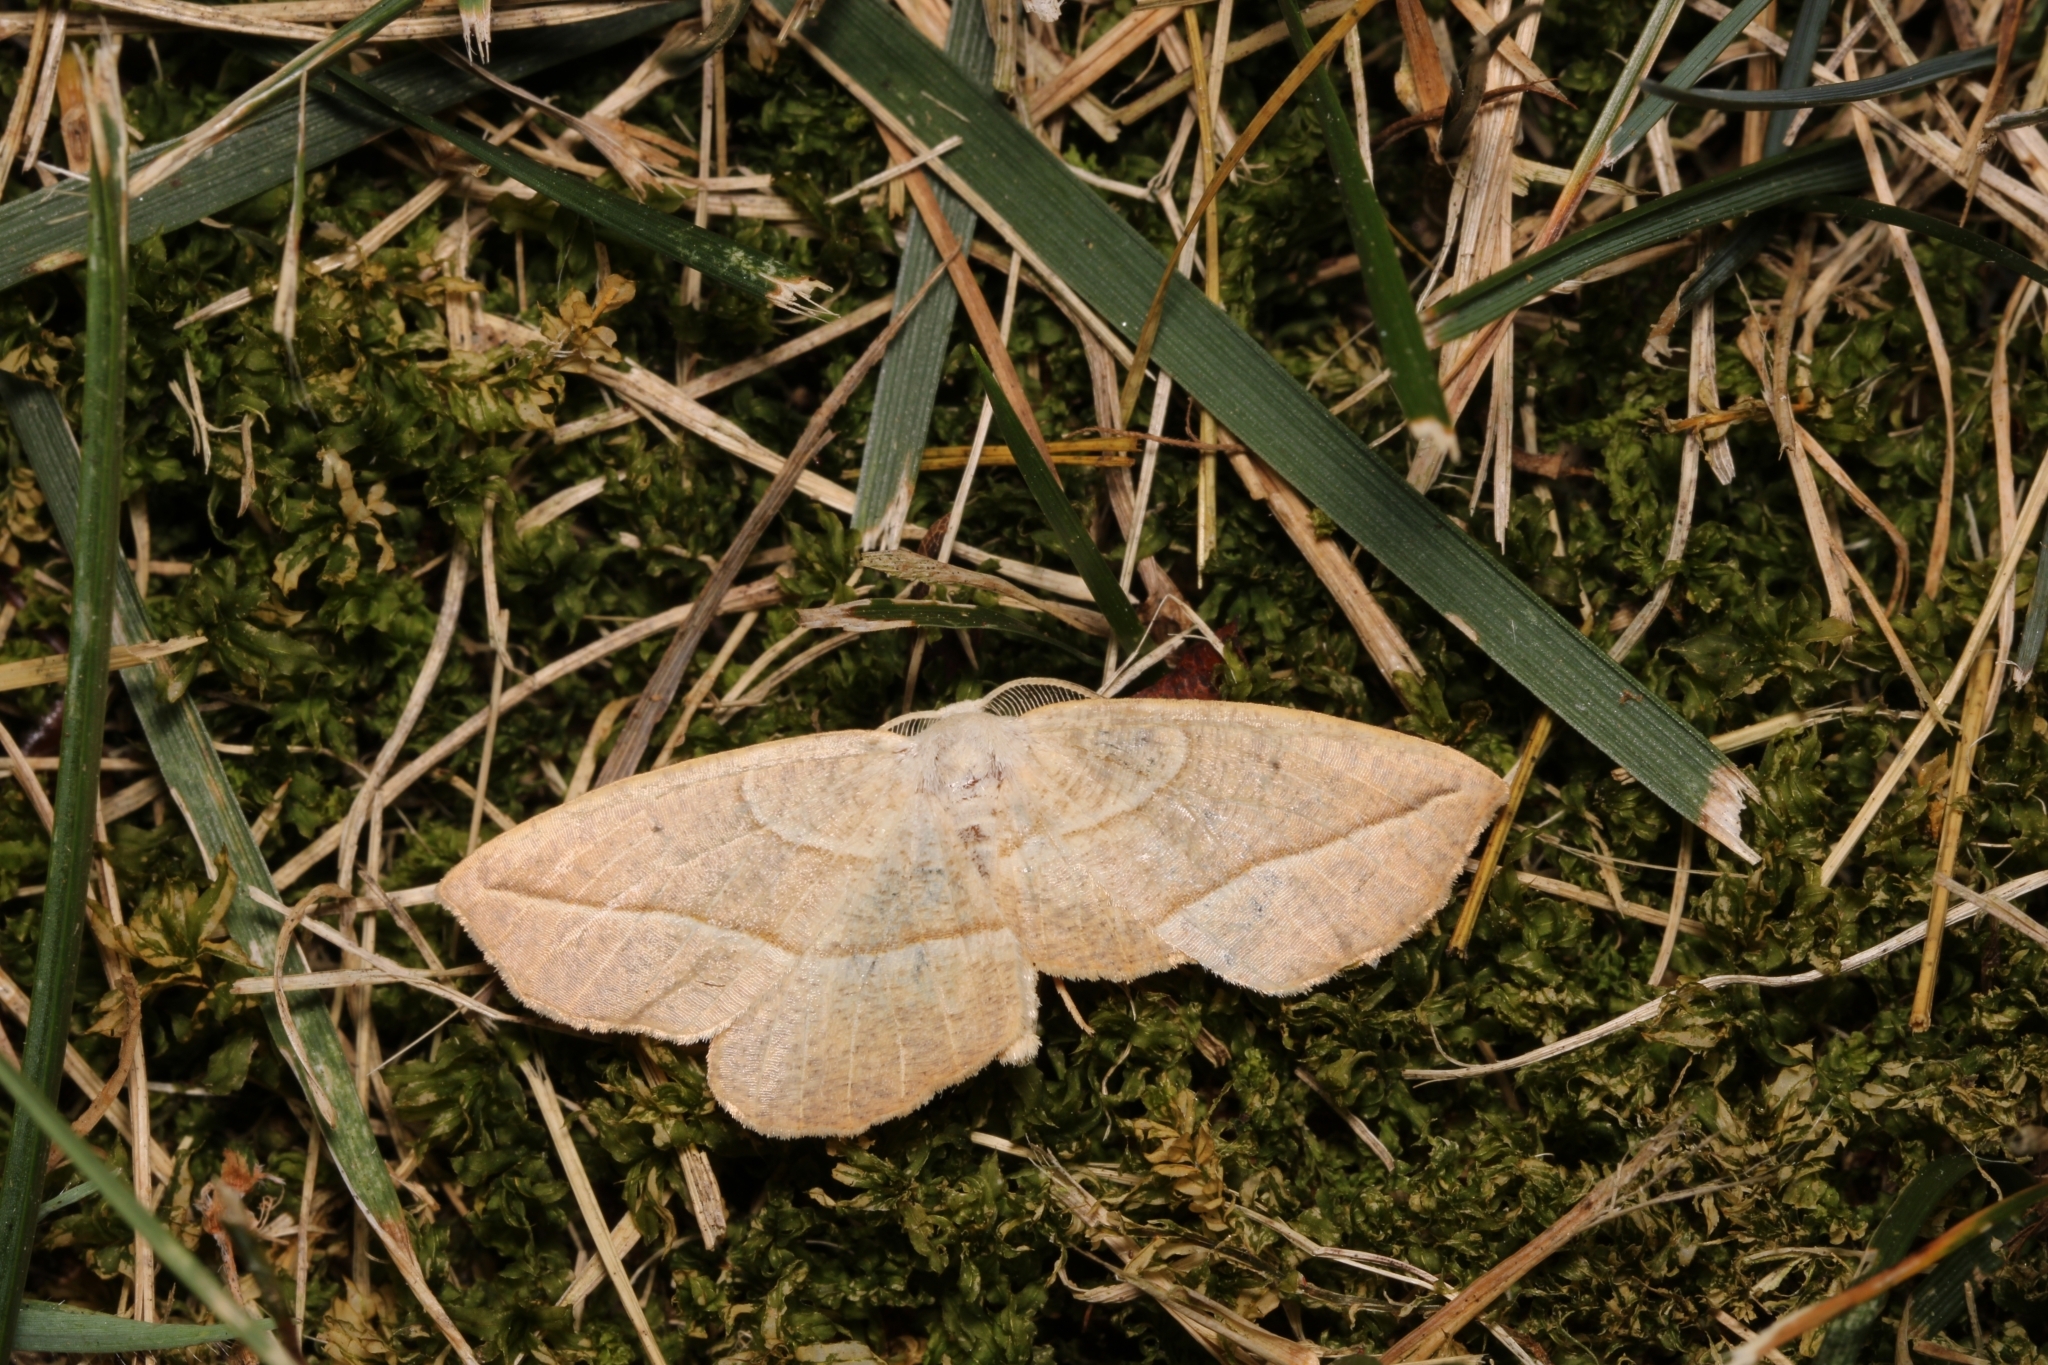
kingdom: Animalia
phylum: Arthropoda
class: Insecta
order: Lepidoptera
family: Geometridae
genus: Eusarca
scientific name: Eusarca confusaria
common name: Confused eusarca
